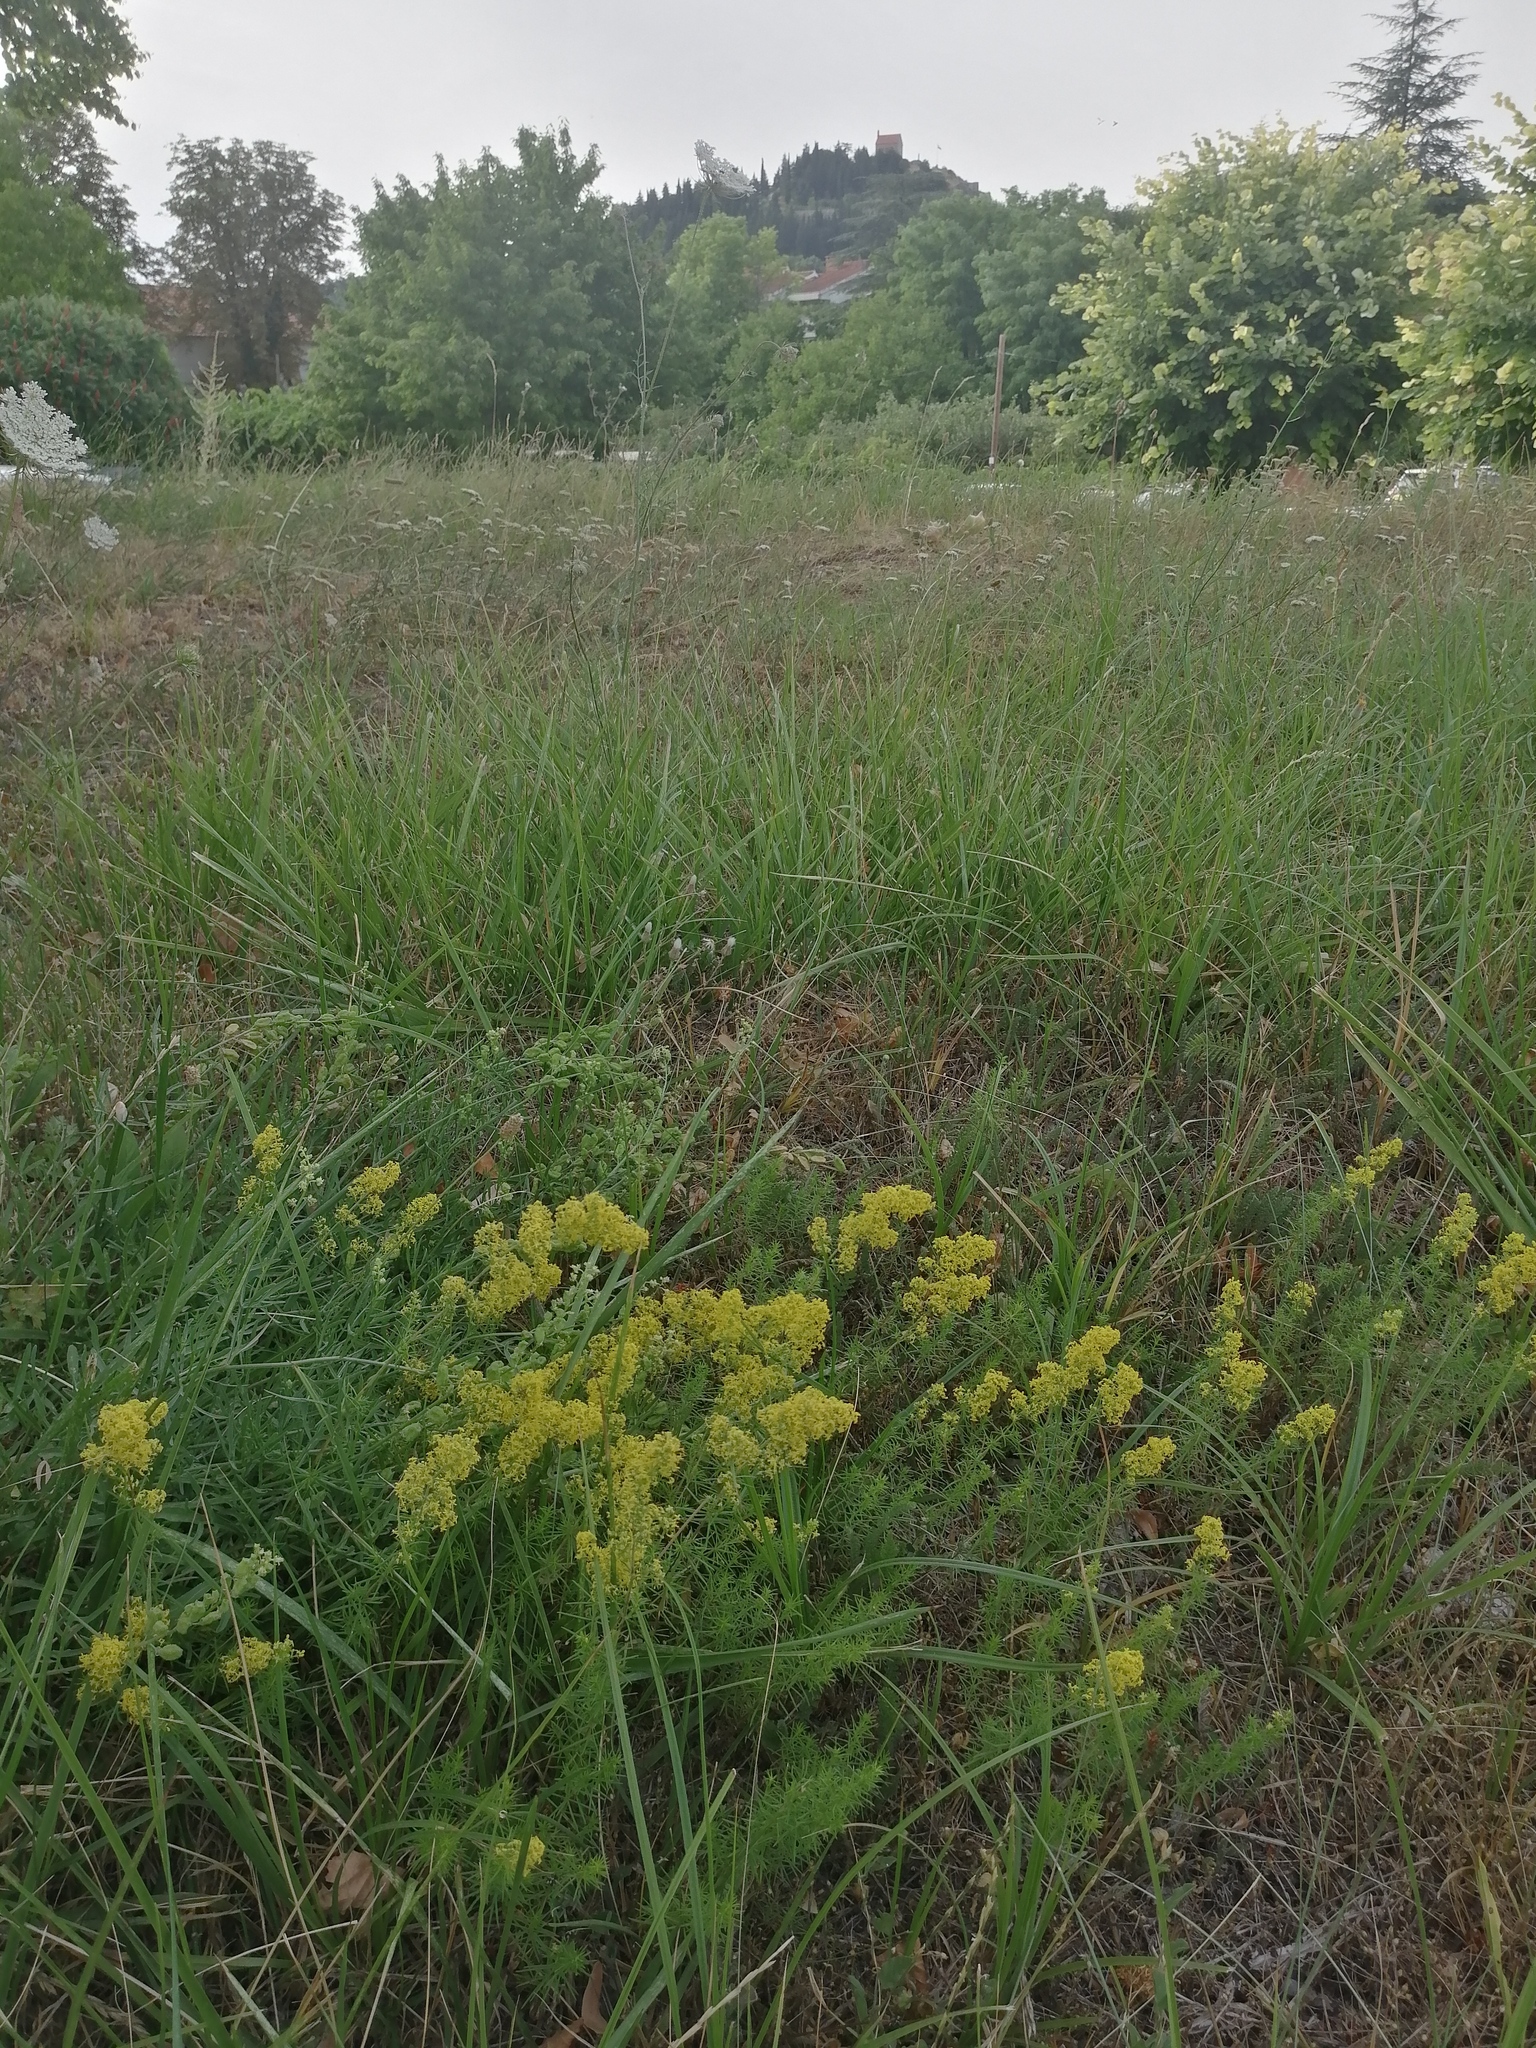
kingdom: Plantae
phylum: Tracheophyta
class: Magnoliopsida
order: Gentianales
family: Rubiaceae
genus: Galium
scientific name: Galium verum
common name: Lady's bedstraw
